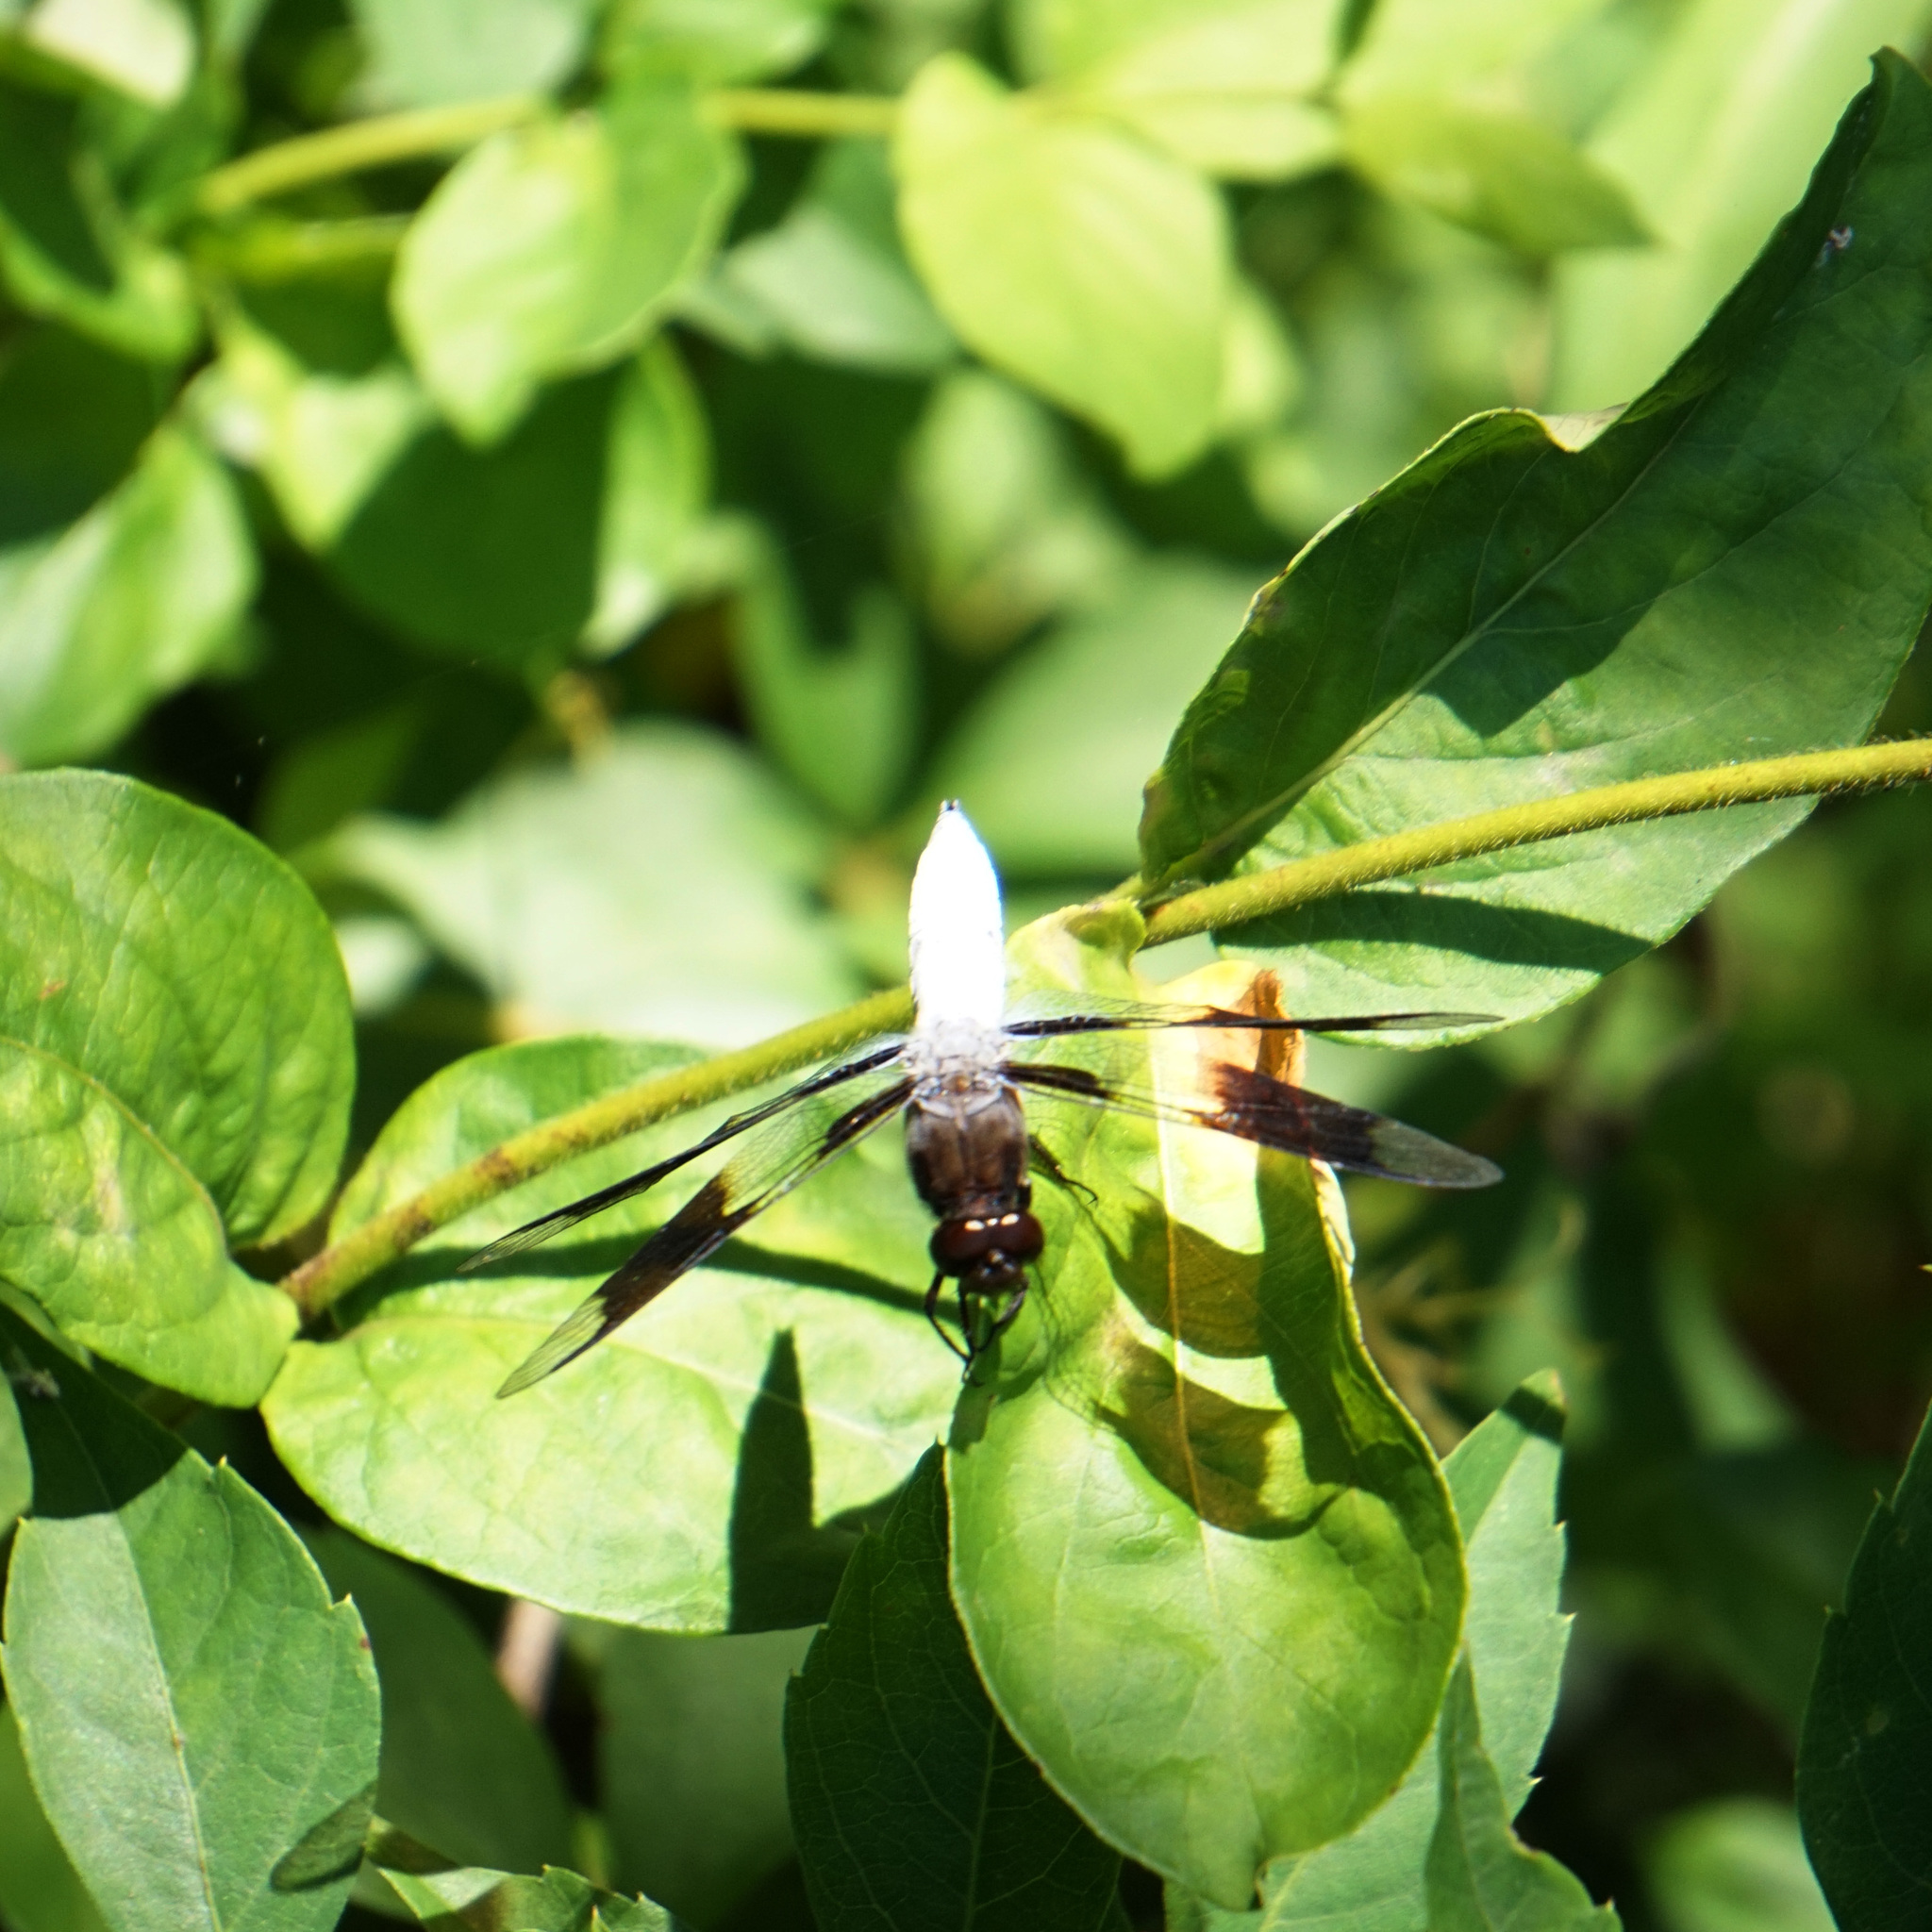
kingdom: Animalia
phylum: Arthropoda
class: Insecta
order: Odonata
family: Libellulidae
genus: Plathemis
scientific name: Plathemis lydia
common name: Common whitetail
